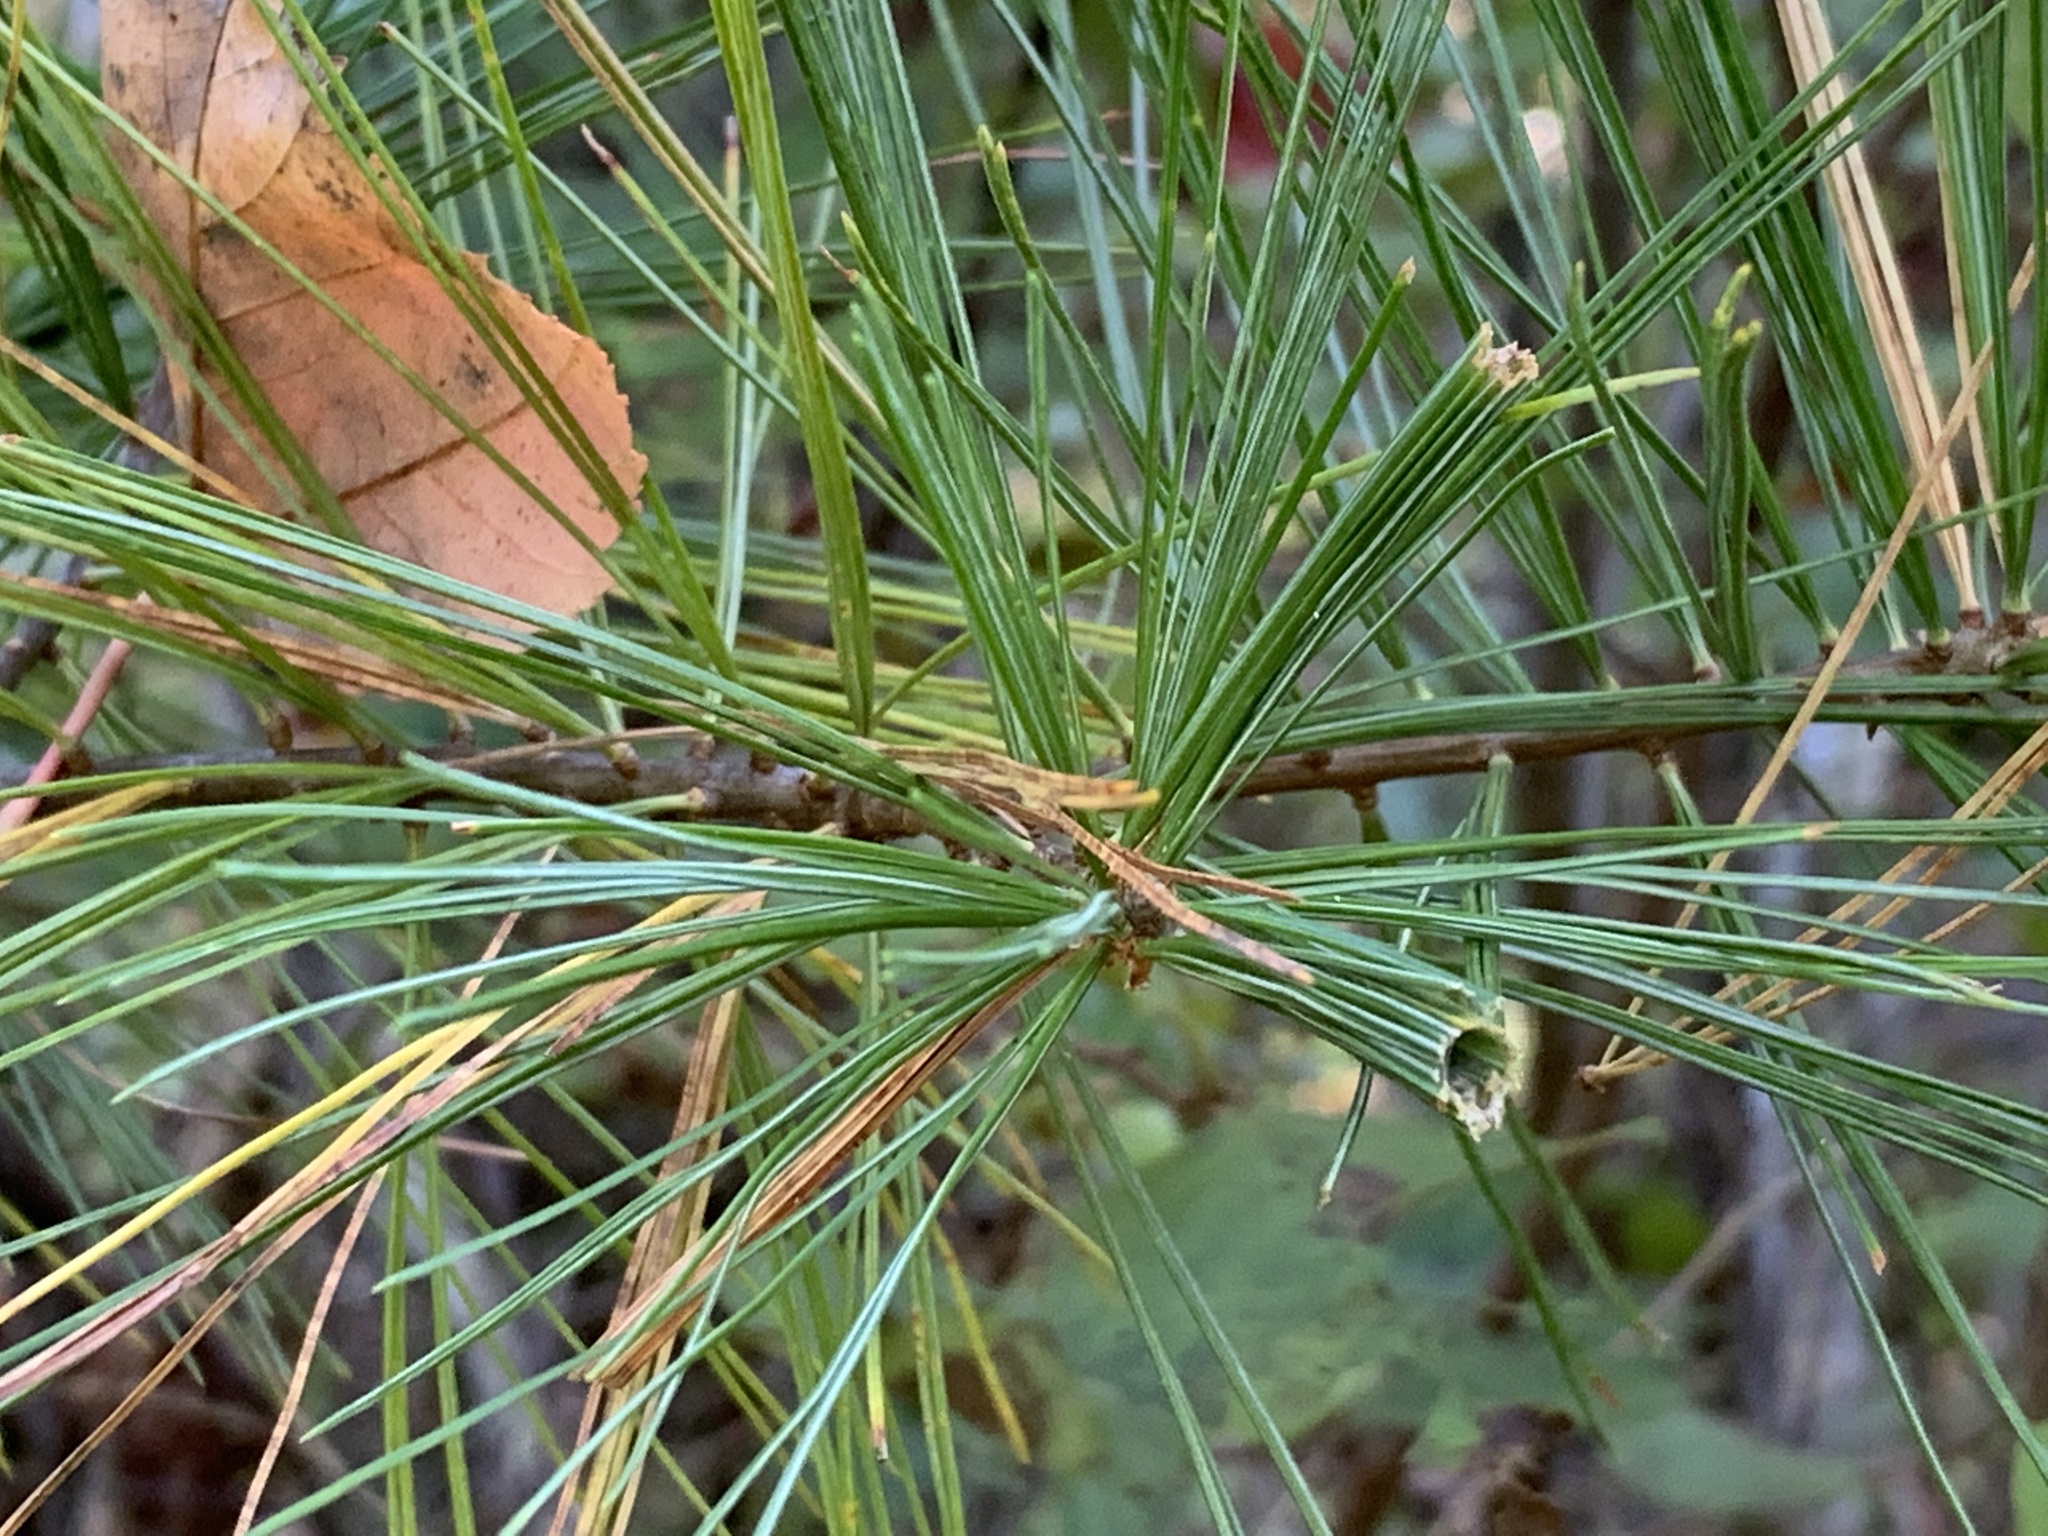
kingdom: Animalia
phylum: Arthropoda
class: Insecta
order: Lepidoptera
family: Tortricidae
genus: Argyrotaenia
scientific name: Argyrotaenia pinatubana
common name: Pine tube moth
